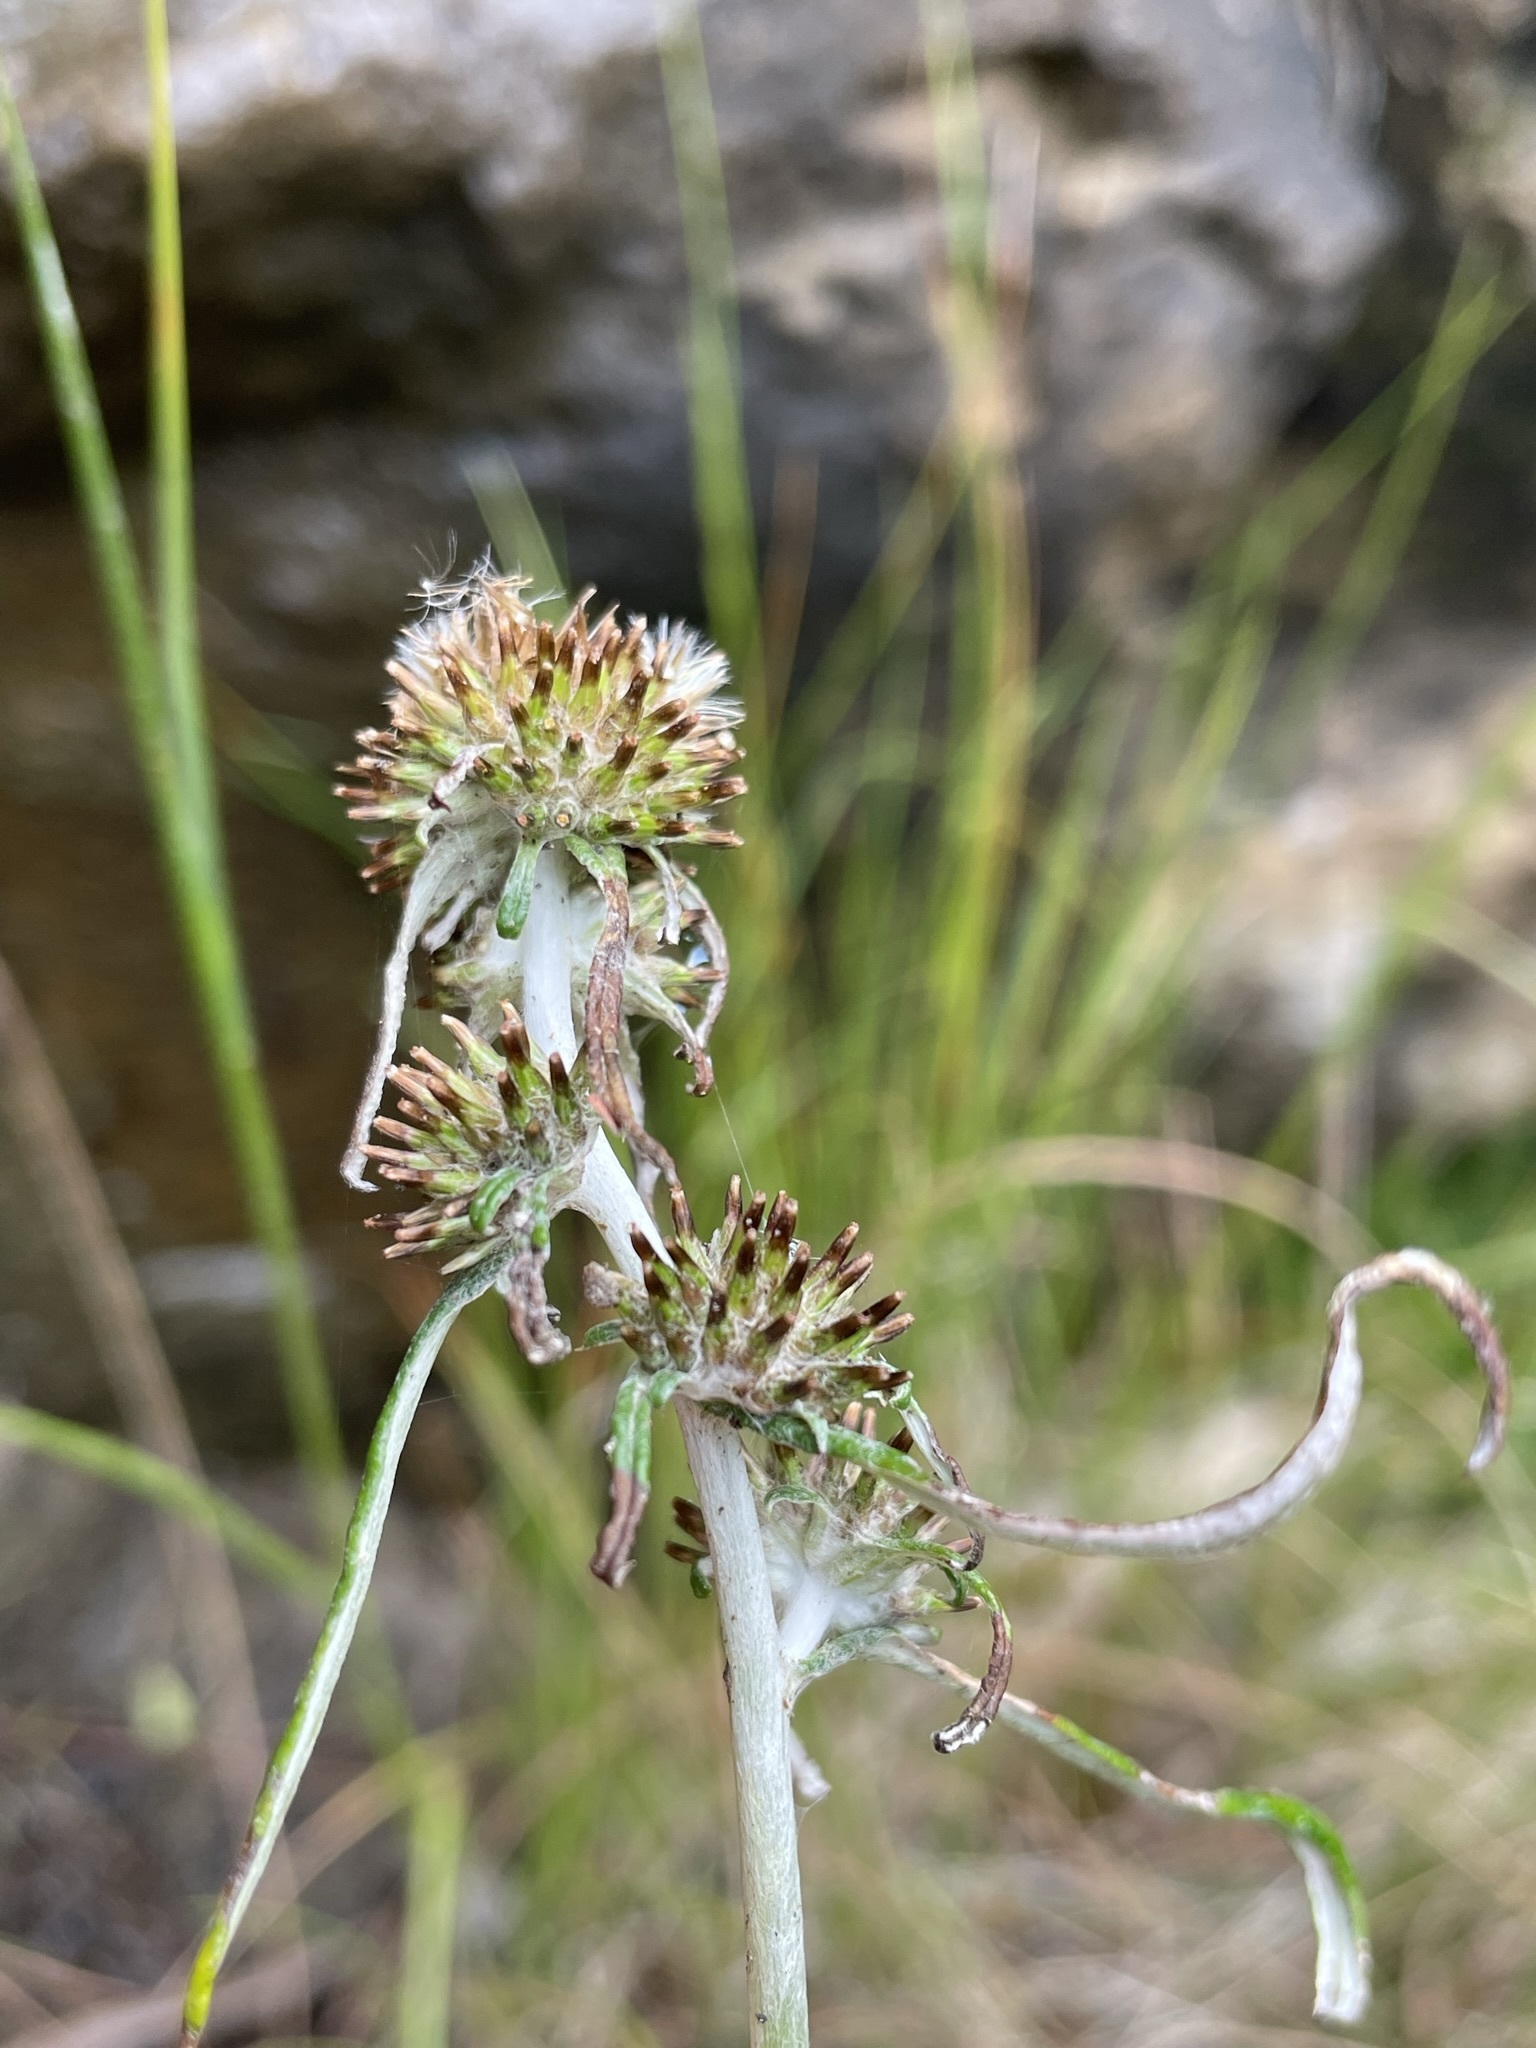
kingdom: Plantae
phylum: Tracheophyta
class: Magnoliopsida
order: Asterales
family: Asteraceae
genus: Euchiton
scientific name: Euchiton involucratus
